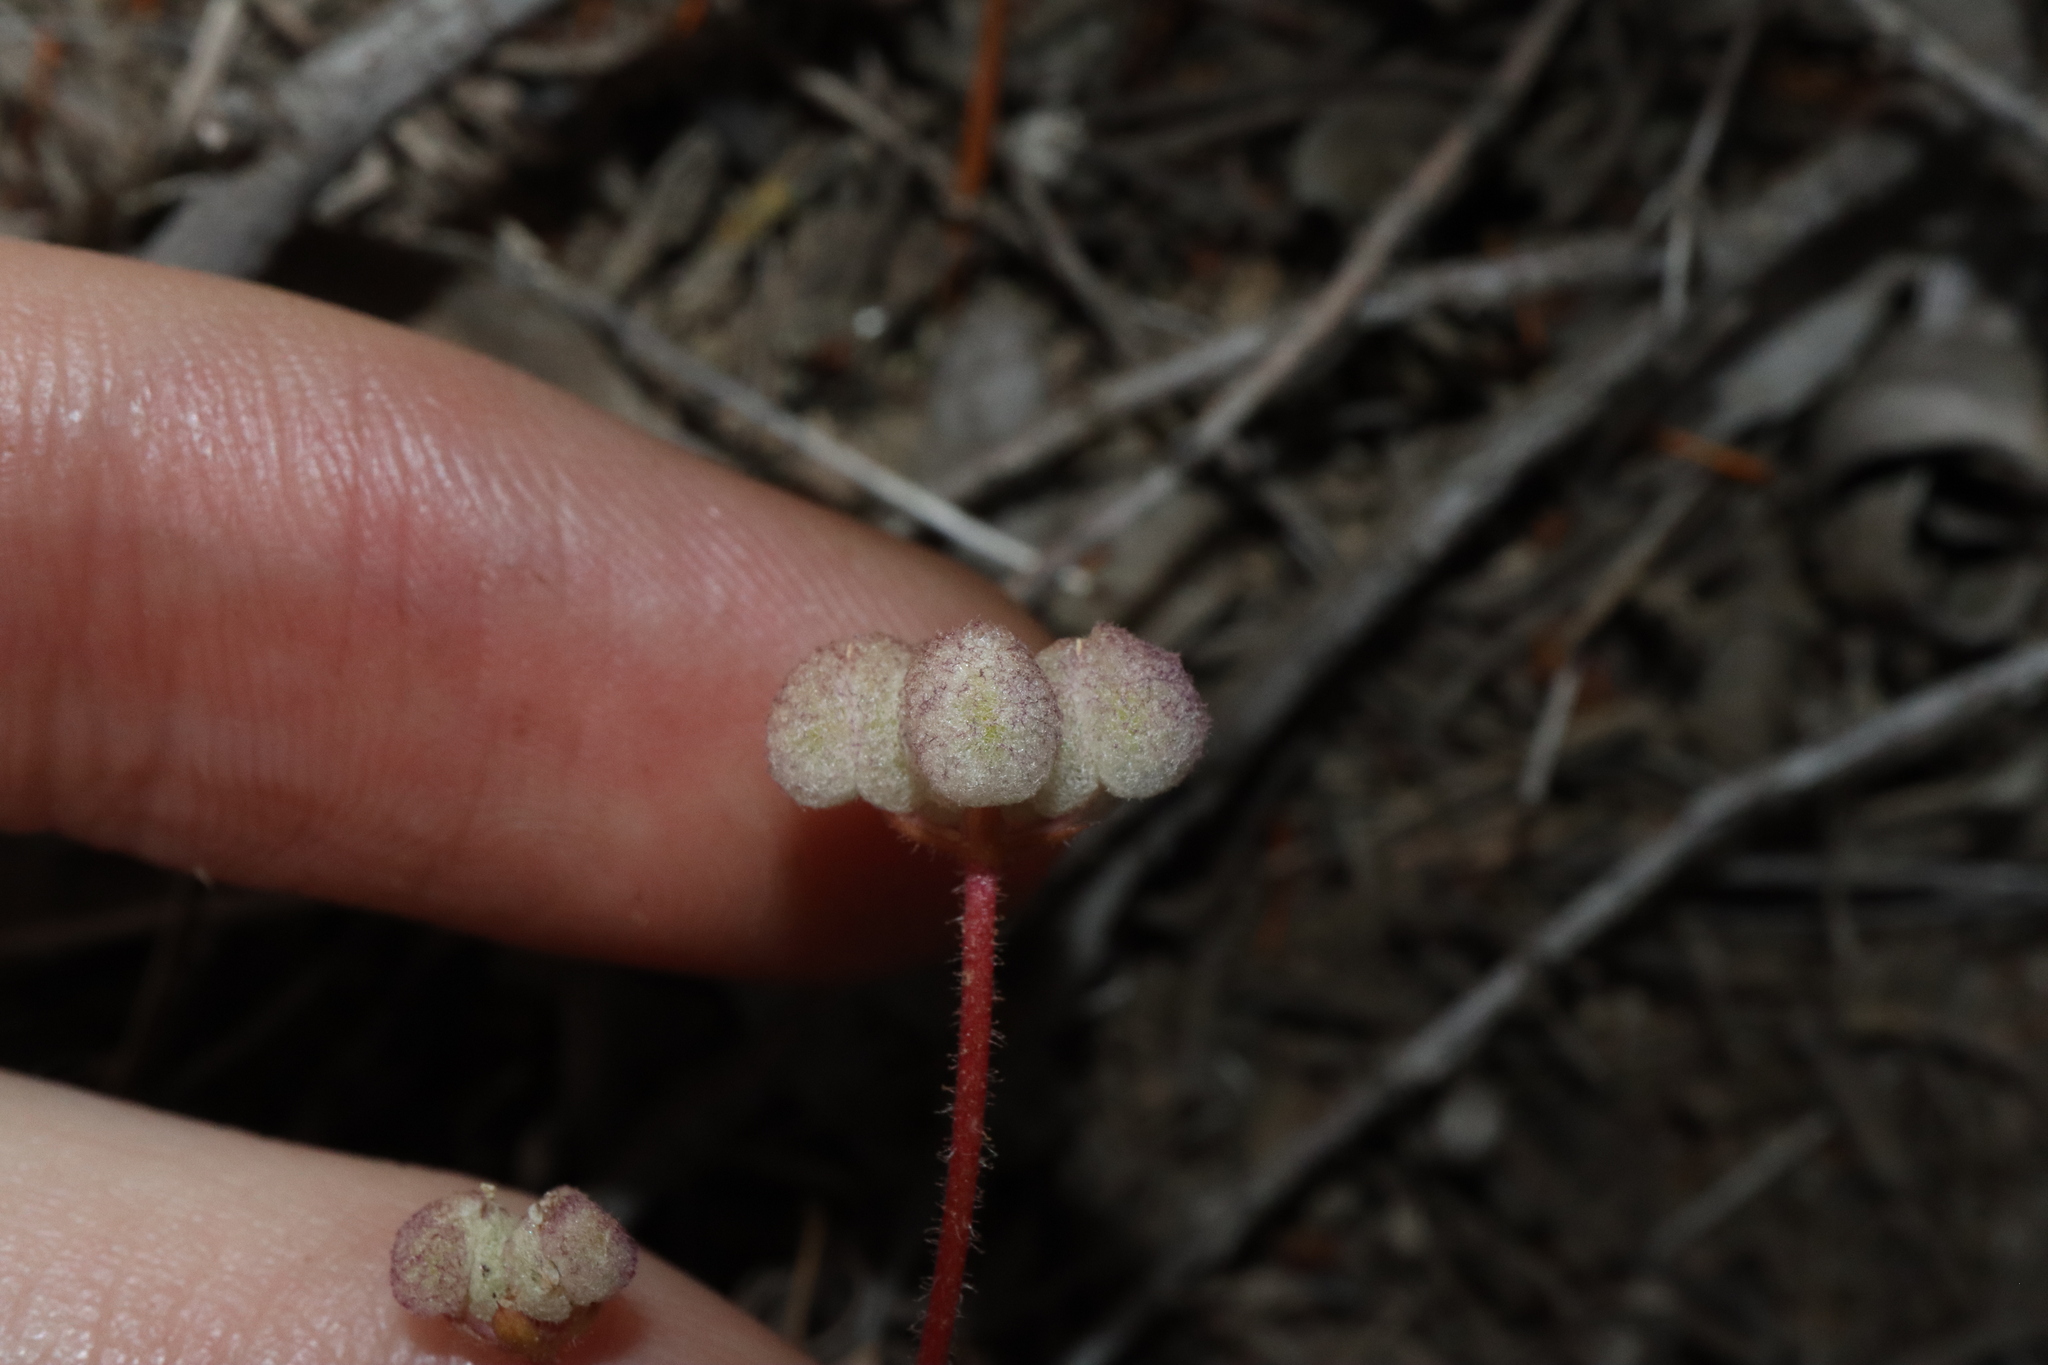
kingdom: Plantae
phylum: Tracheophyta
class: Magnoliopsida
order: Apiales
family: Araliaceae
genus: Trachymene
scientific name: Trachymene ornata
